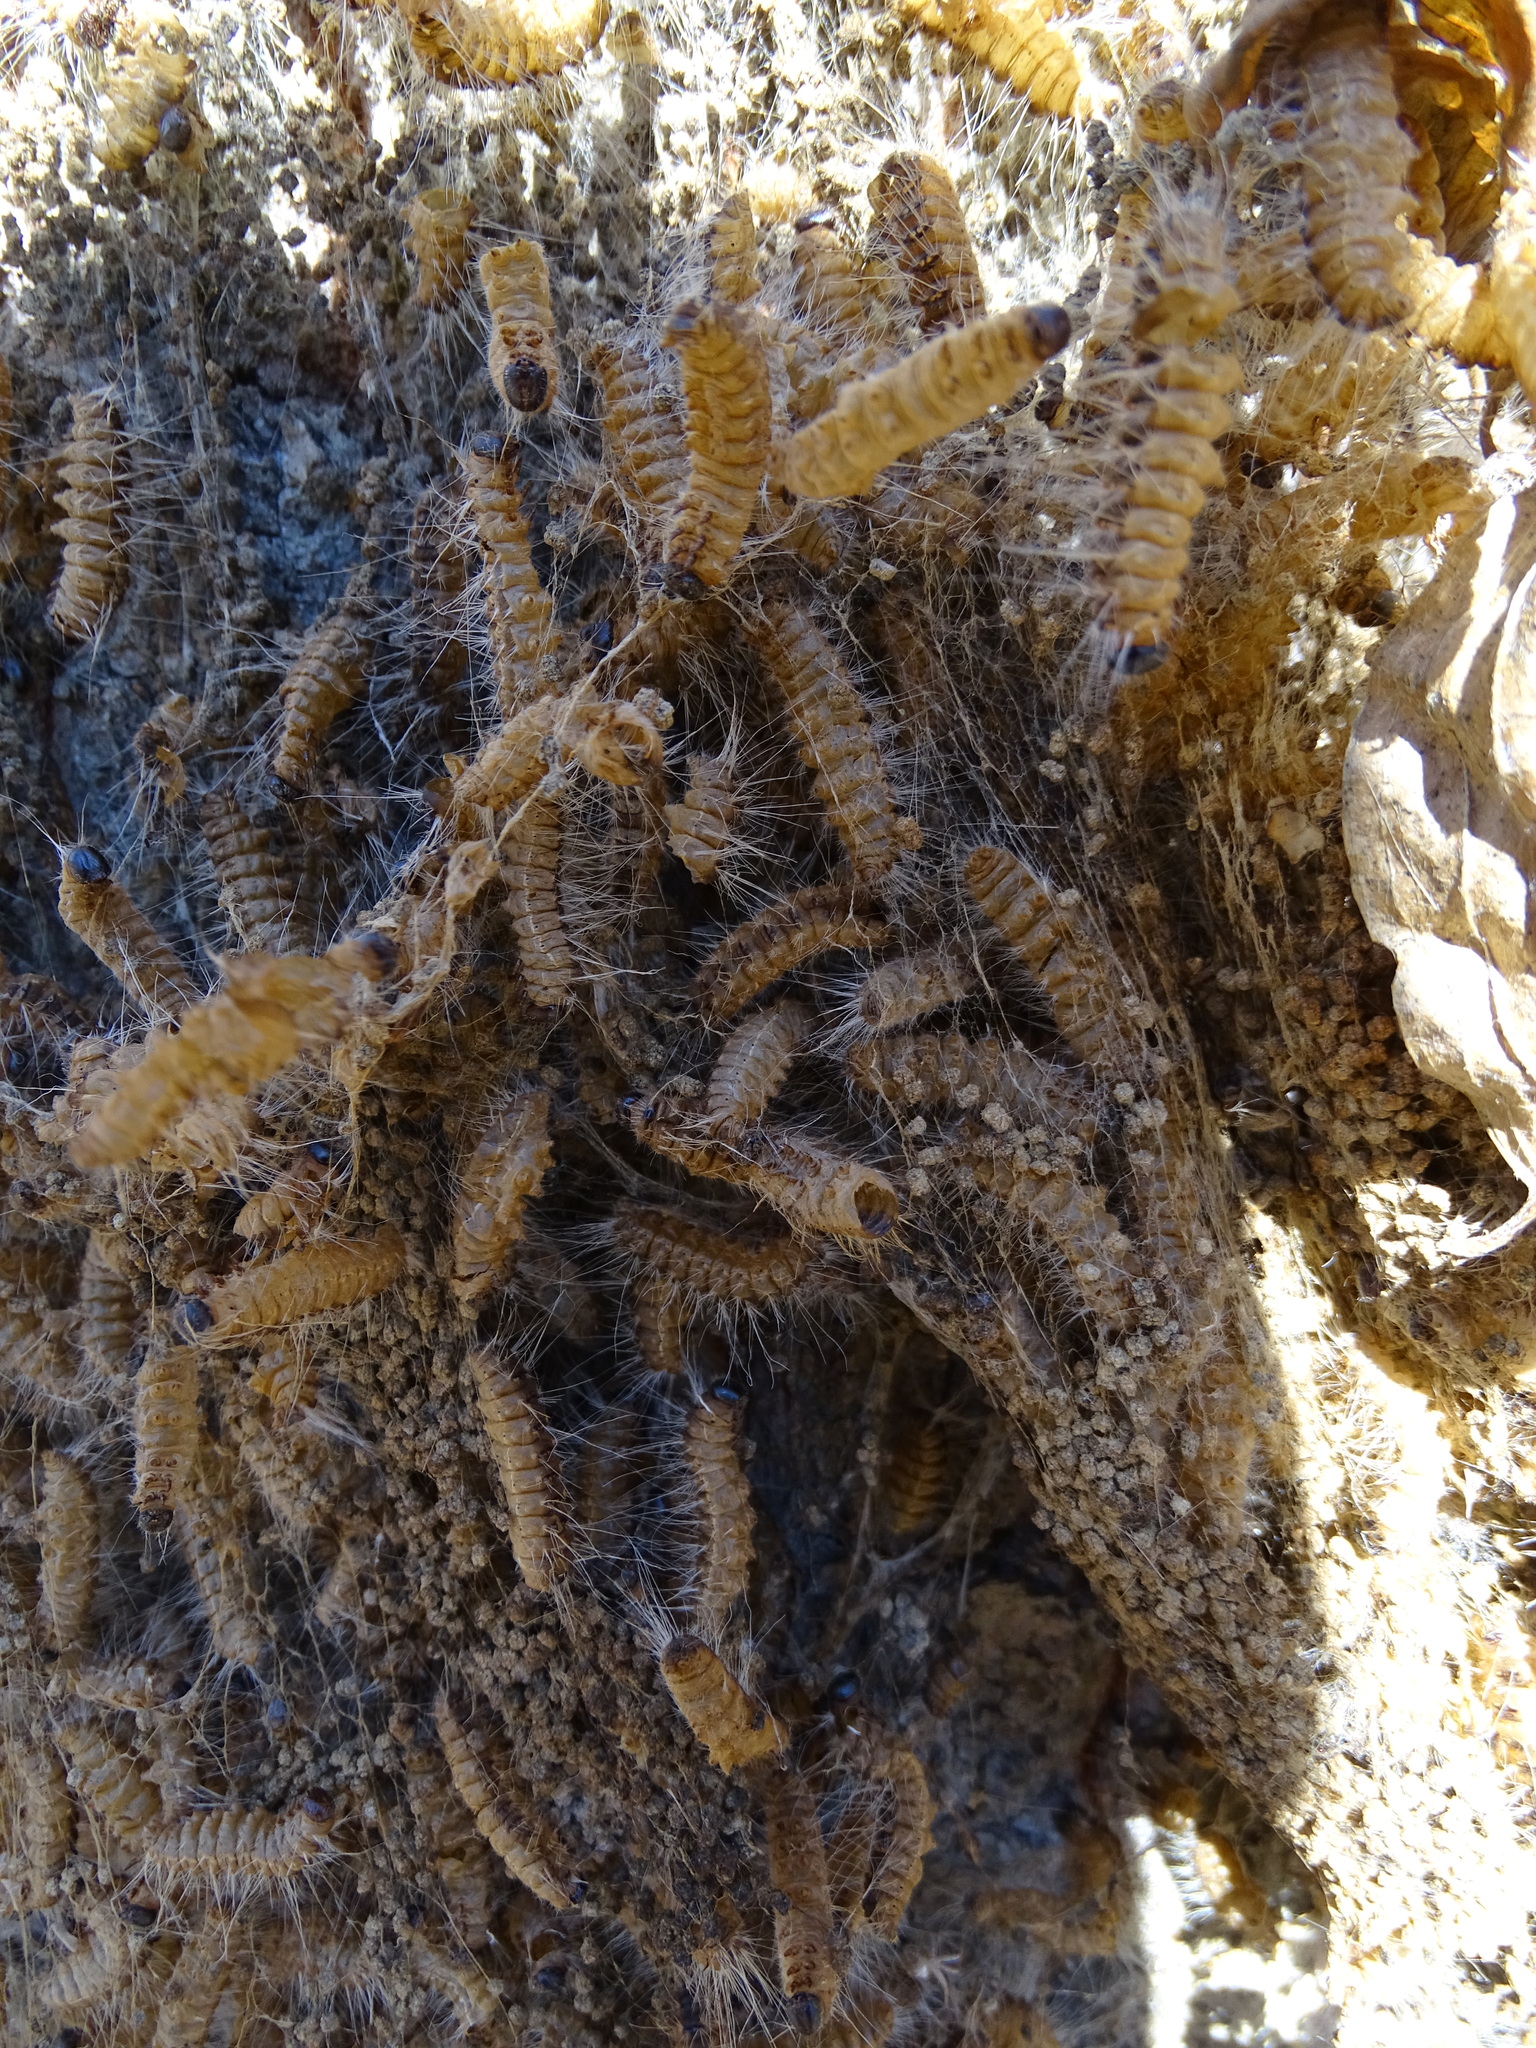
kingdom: Animalia
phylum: Arthropoda
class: Insecta
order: Lepidoptera
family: Notodontidae
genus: Thaumetopoea
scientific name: Thaumetopoea processionea
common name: Oak processionea
